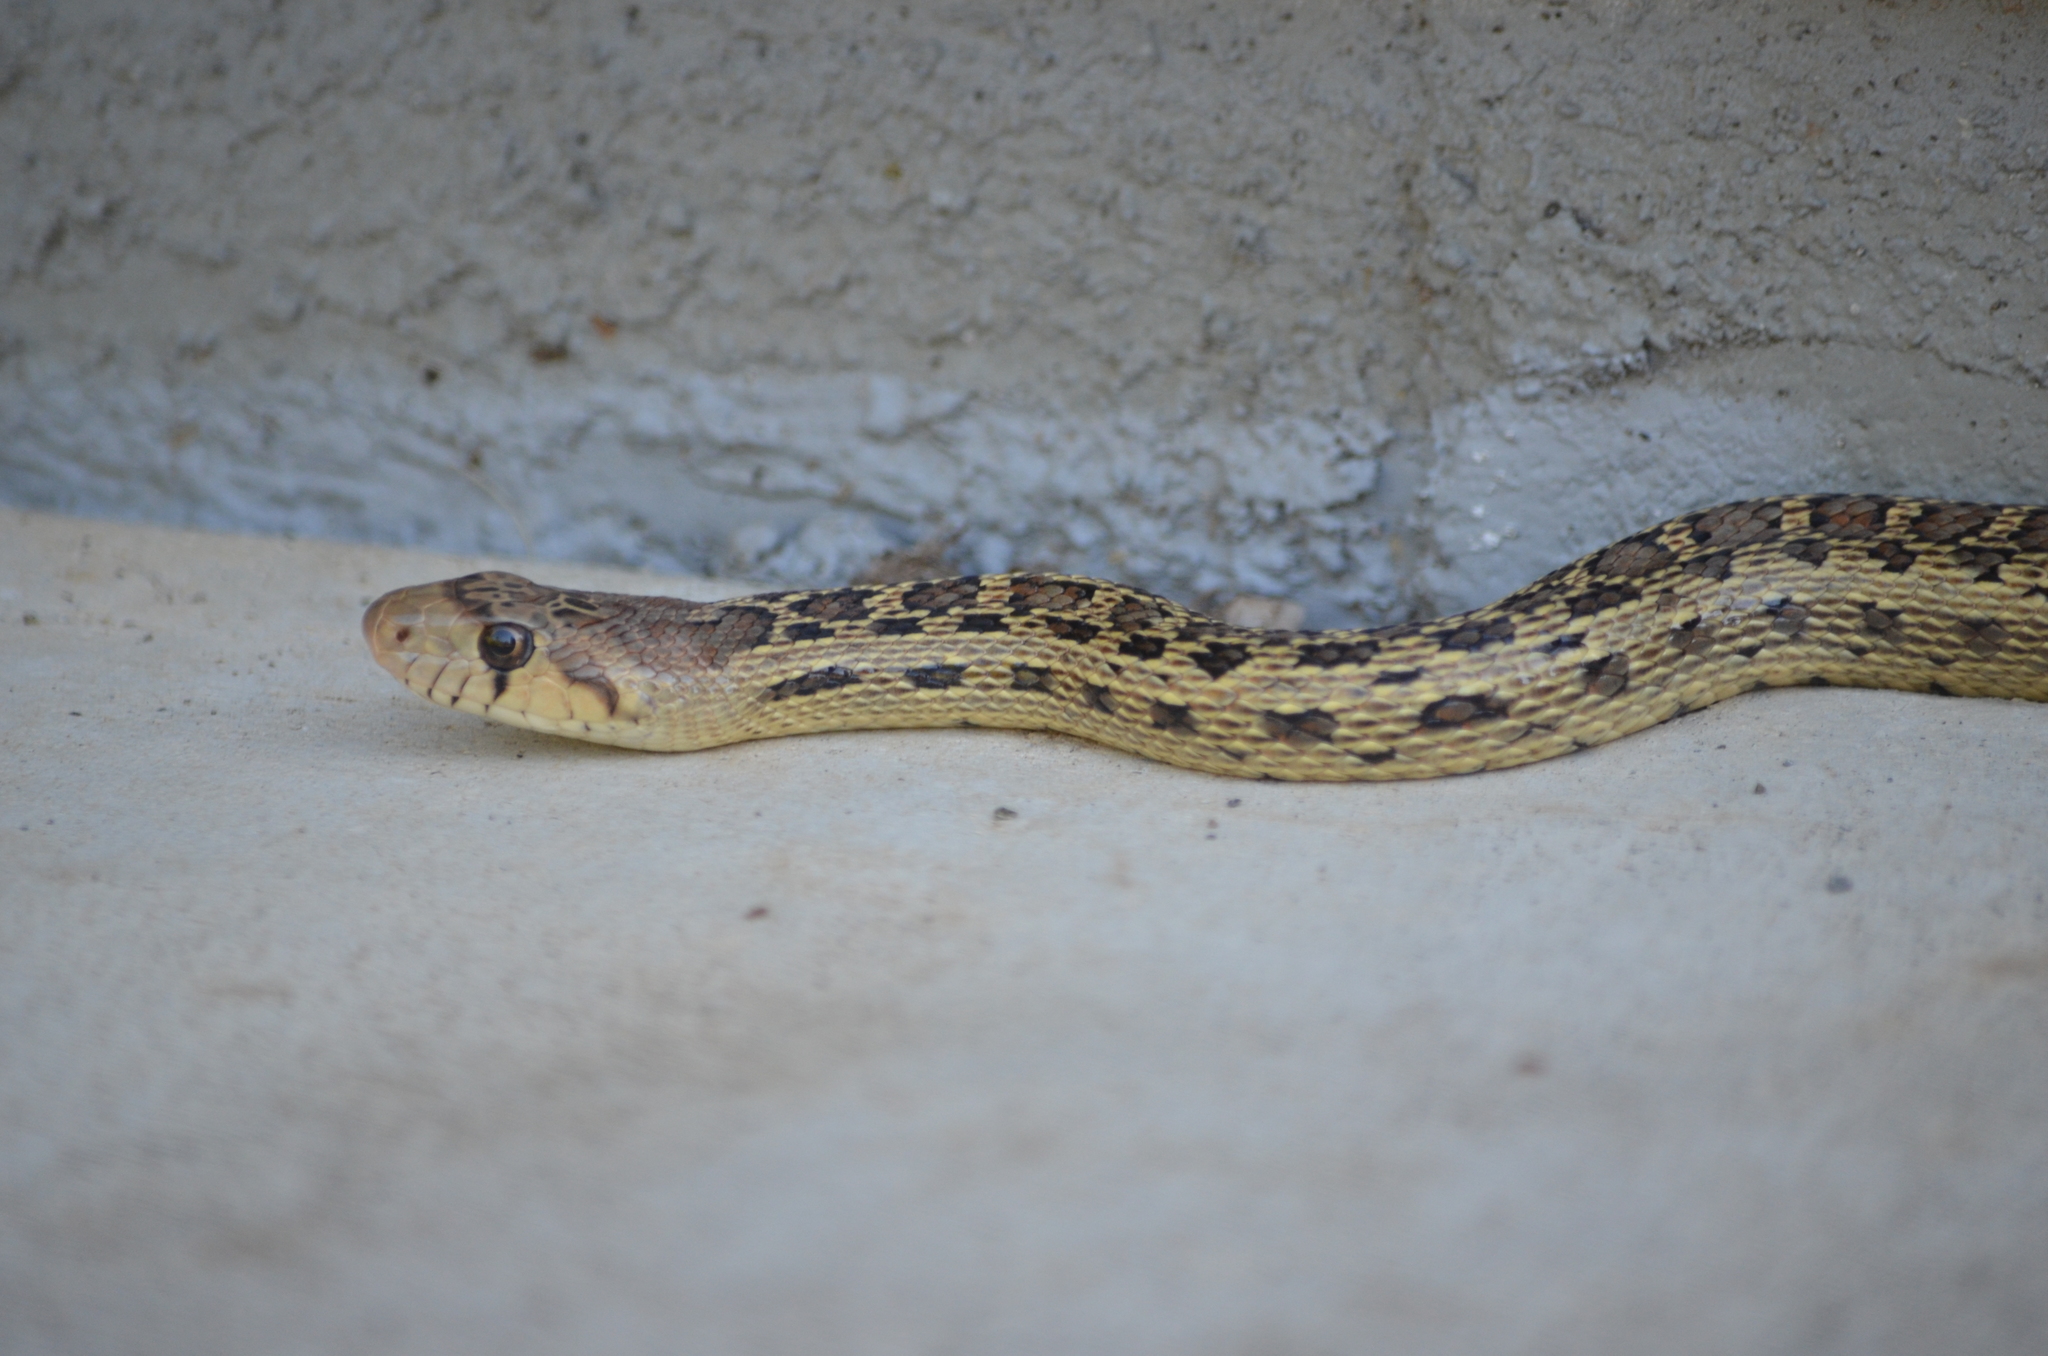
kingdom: Animalia
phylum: Chordata
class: Squamata
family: Colubridae
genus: Pituophis
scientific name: Pituophis catenifer
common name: Gopher snake
